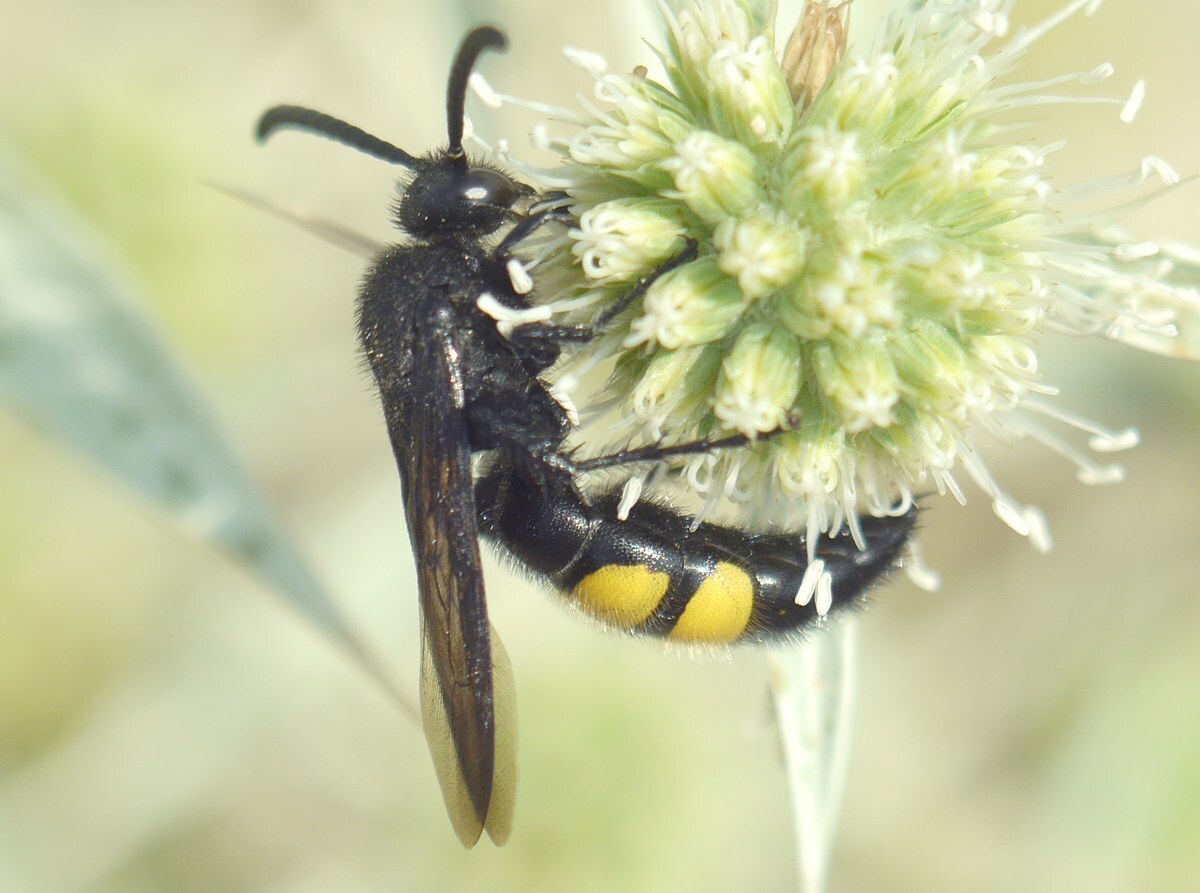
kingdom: Animalia
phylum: Arthropoda
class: Insecta
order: Hymenoptera
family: Scoliidae
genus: Scolia
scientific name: Scolia hirta
